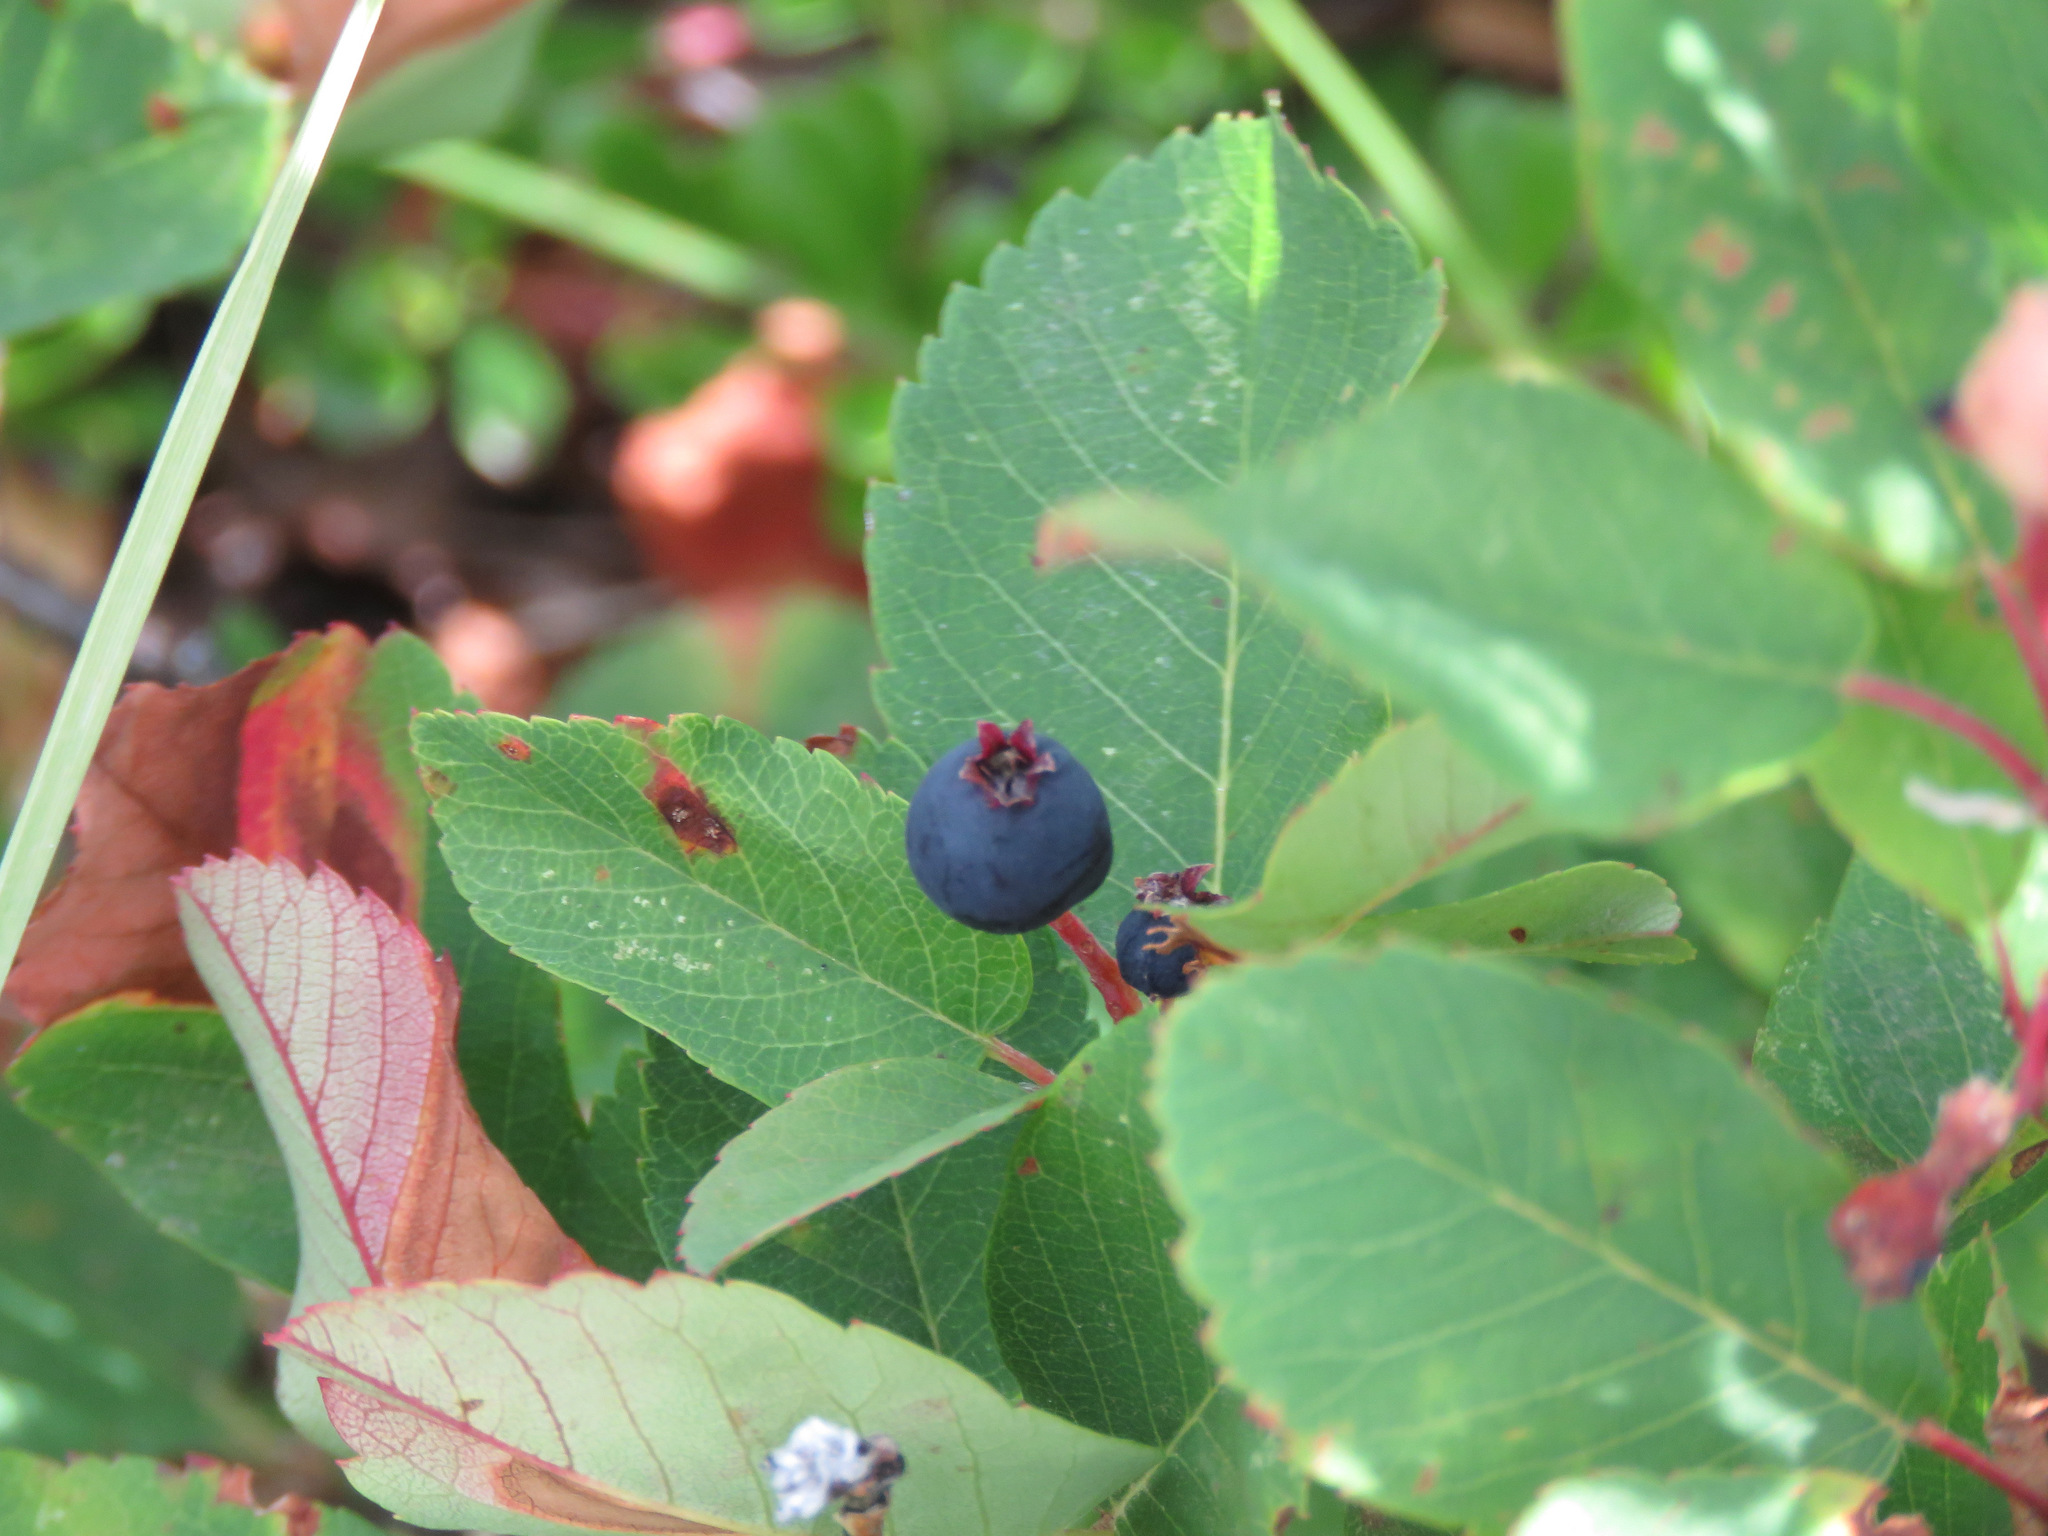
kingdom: Plantae
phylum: Tracheophyta
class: Magnoliopsida
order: Rosales
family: Rosaceae
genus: Amelanchier
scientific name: Amelanchier alnifolia
